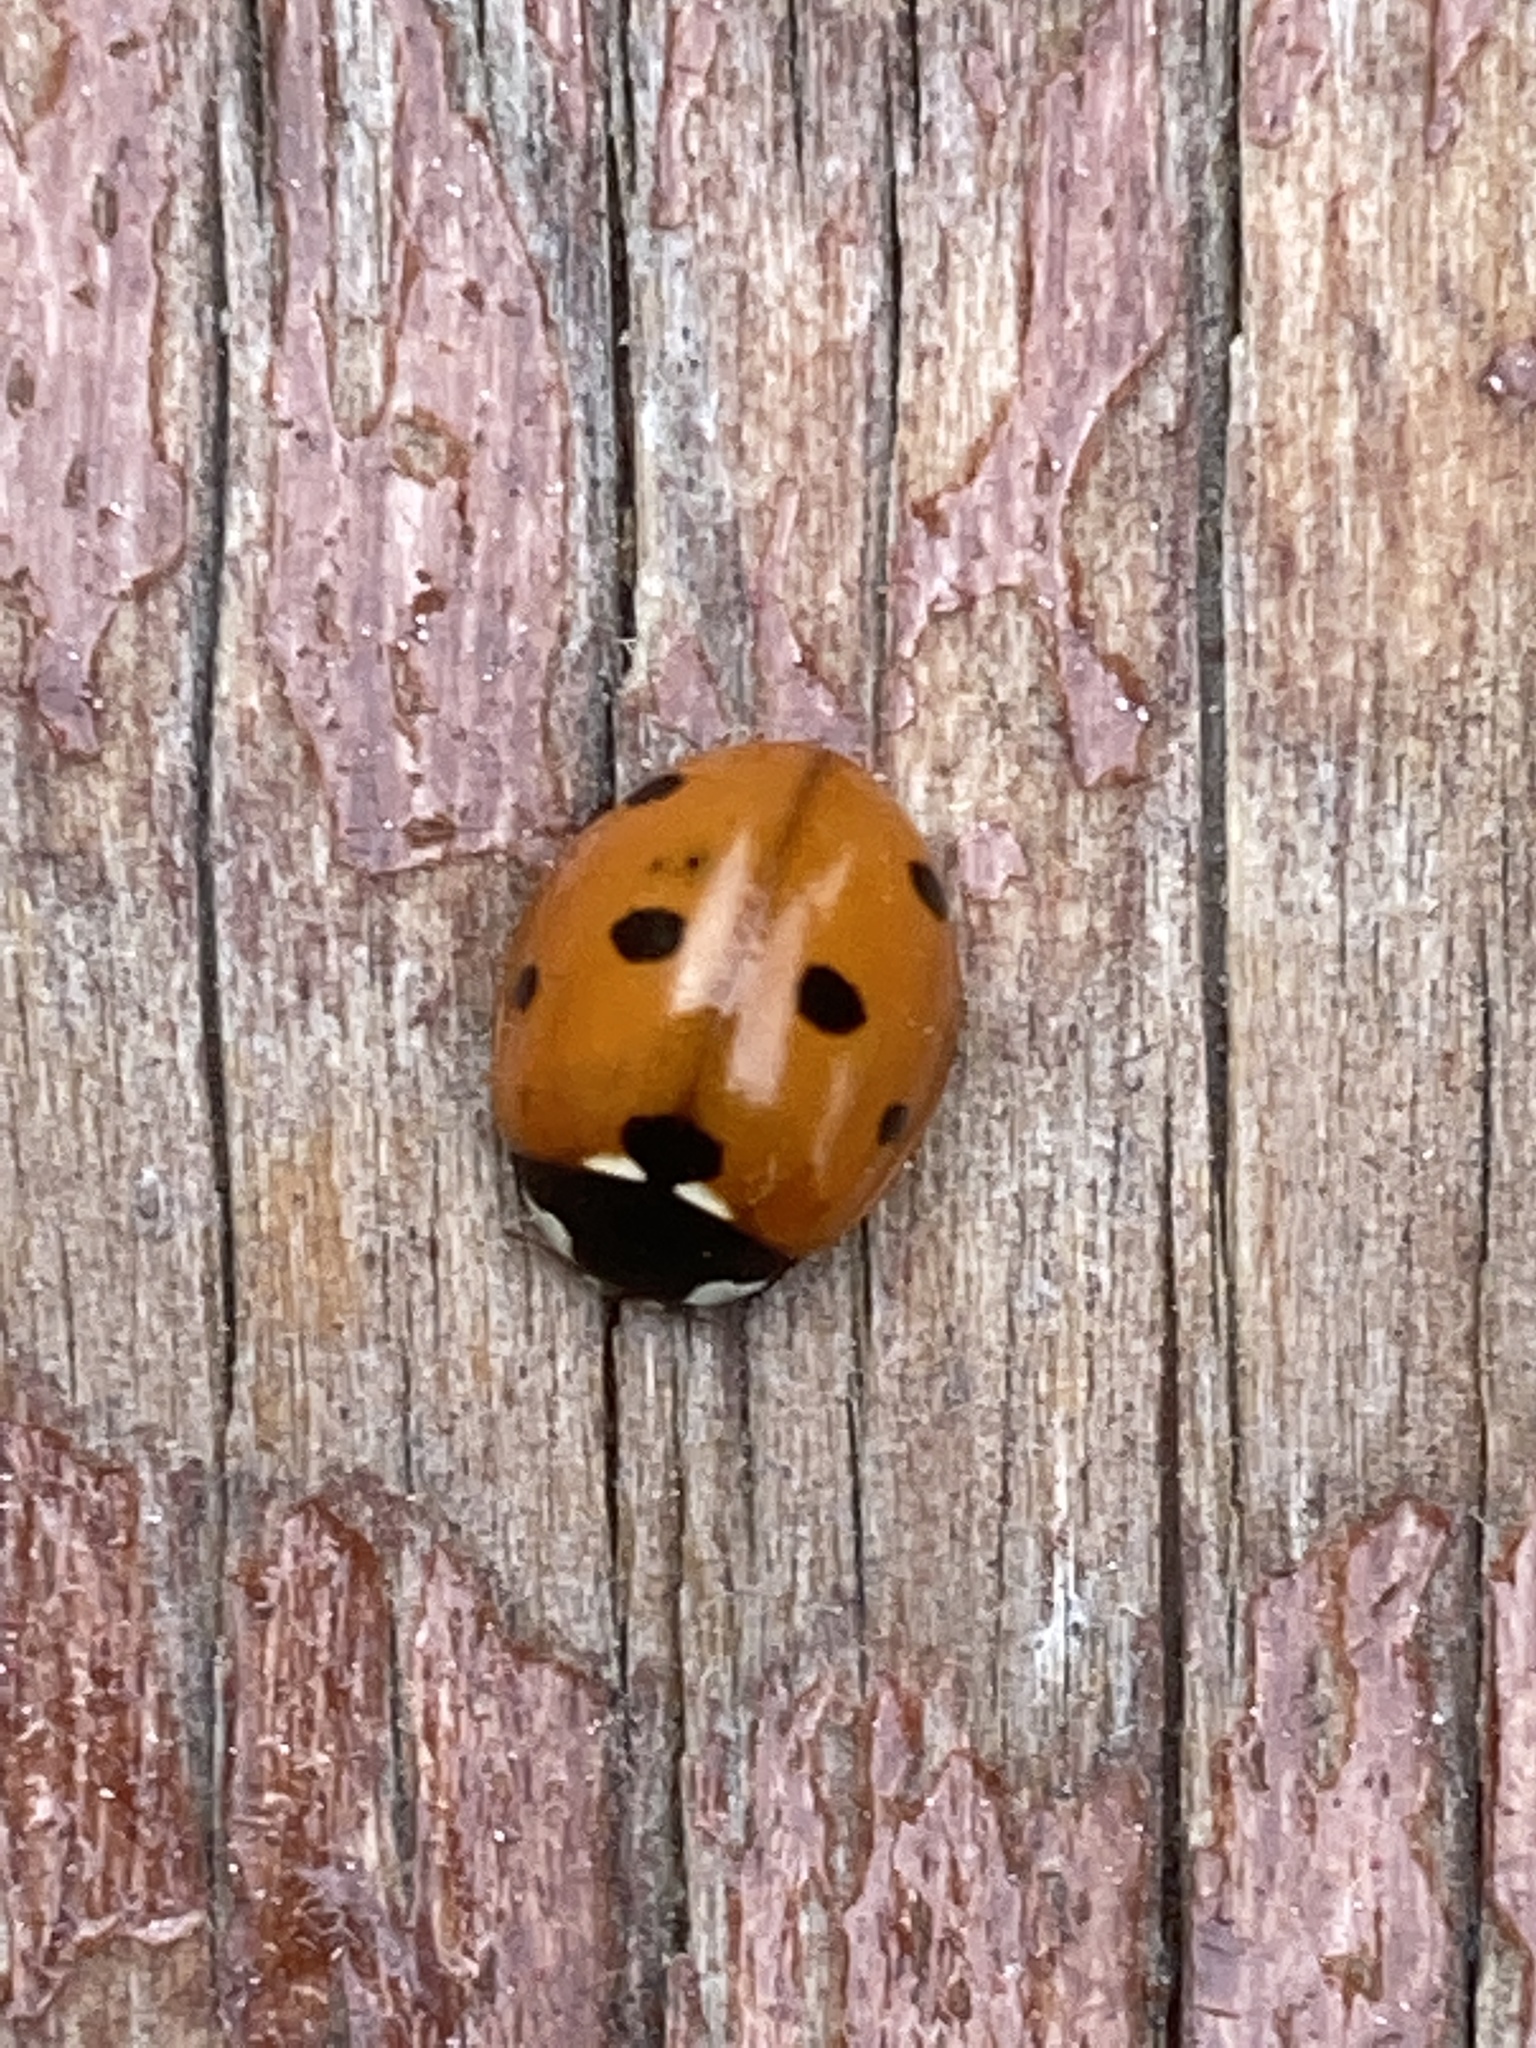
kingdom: Animalia
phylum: Arthropoda
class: Insecta
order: Coleoptera
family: Coccinellidae
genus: Coccinella
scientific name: Coccinella septempunctata
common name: Sevenspotted lady beetle
